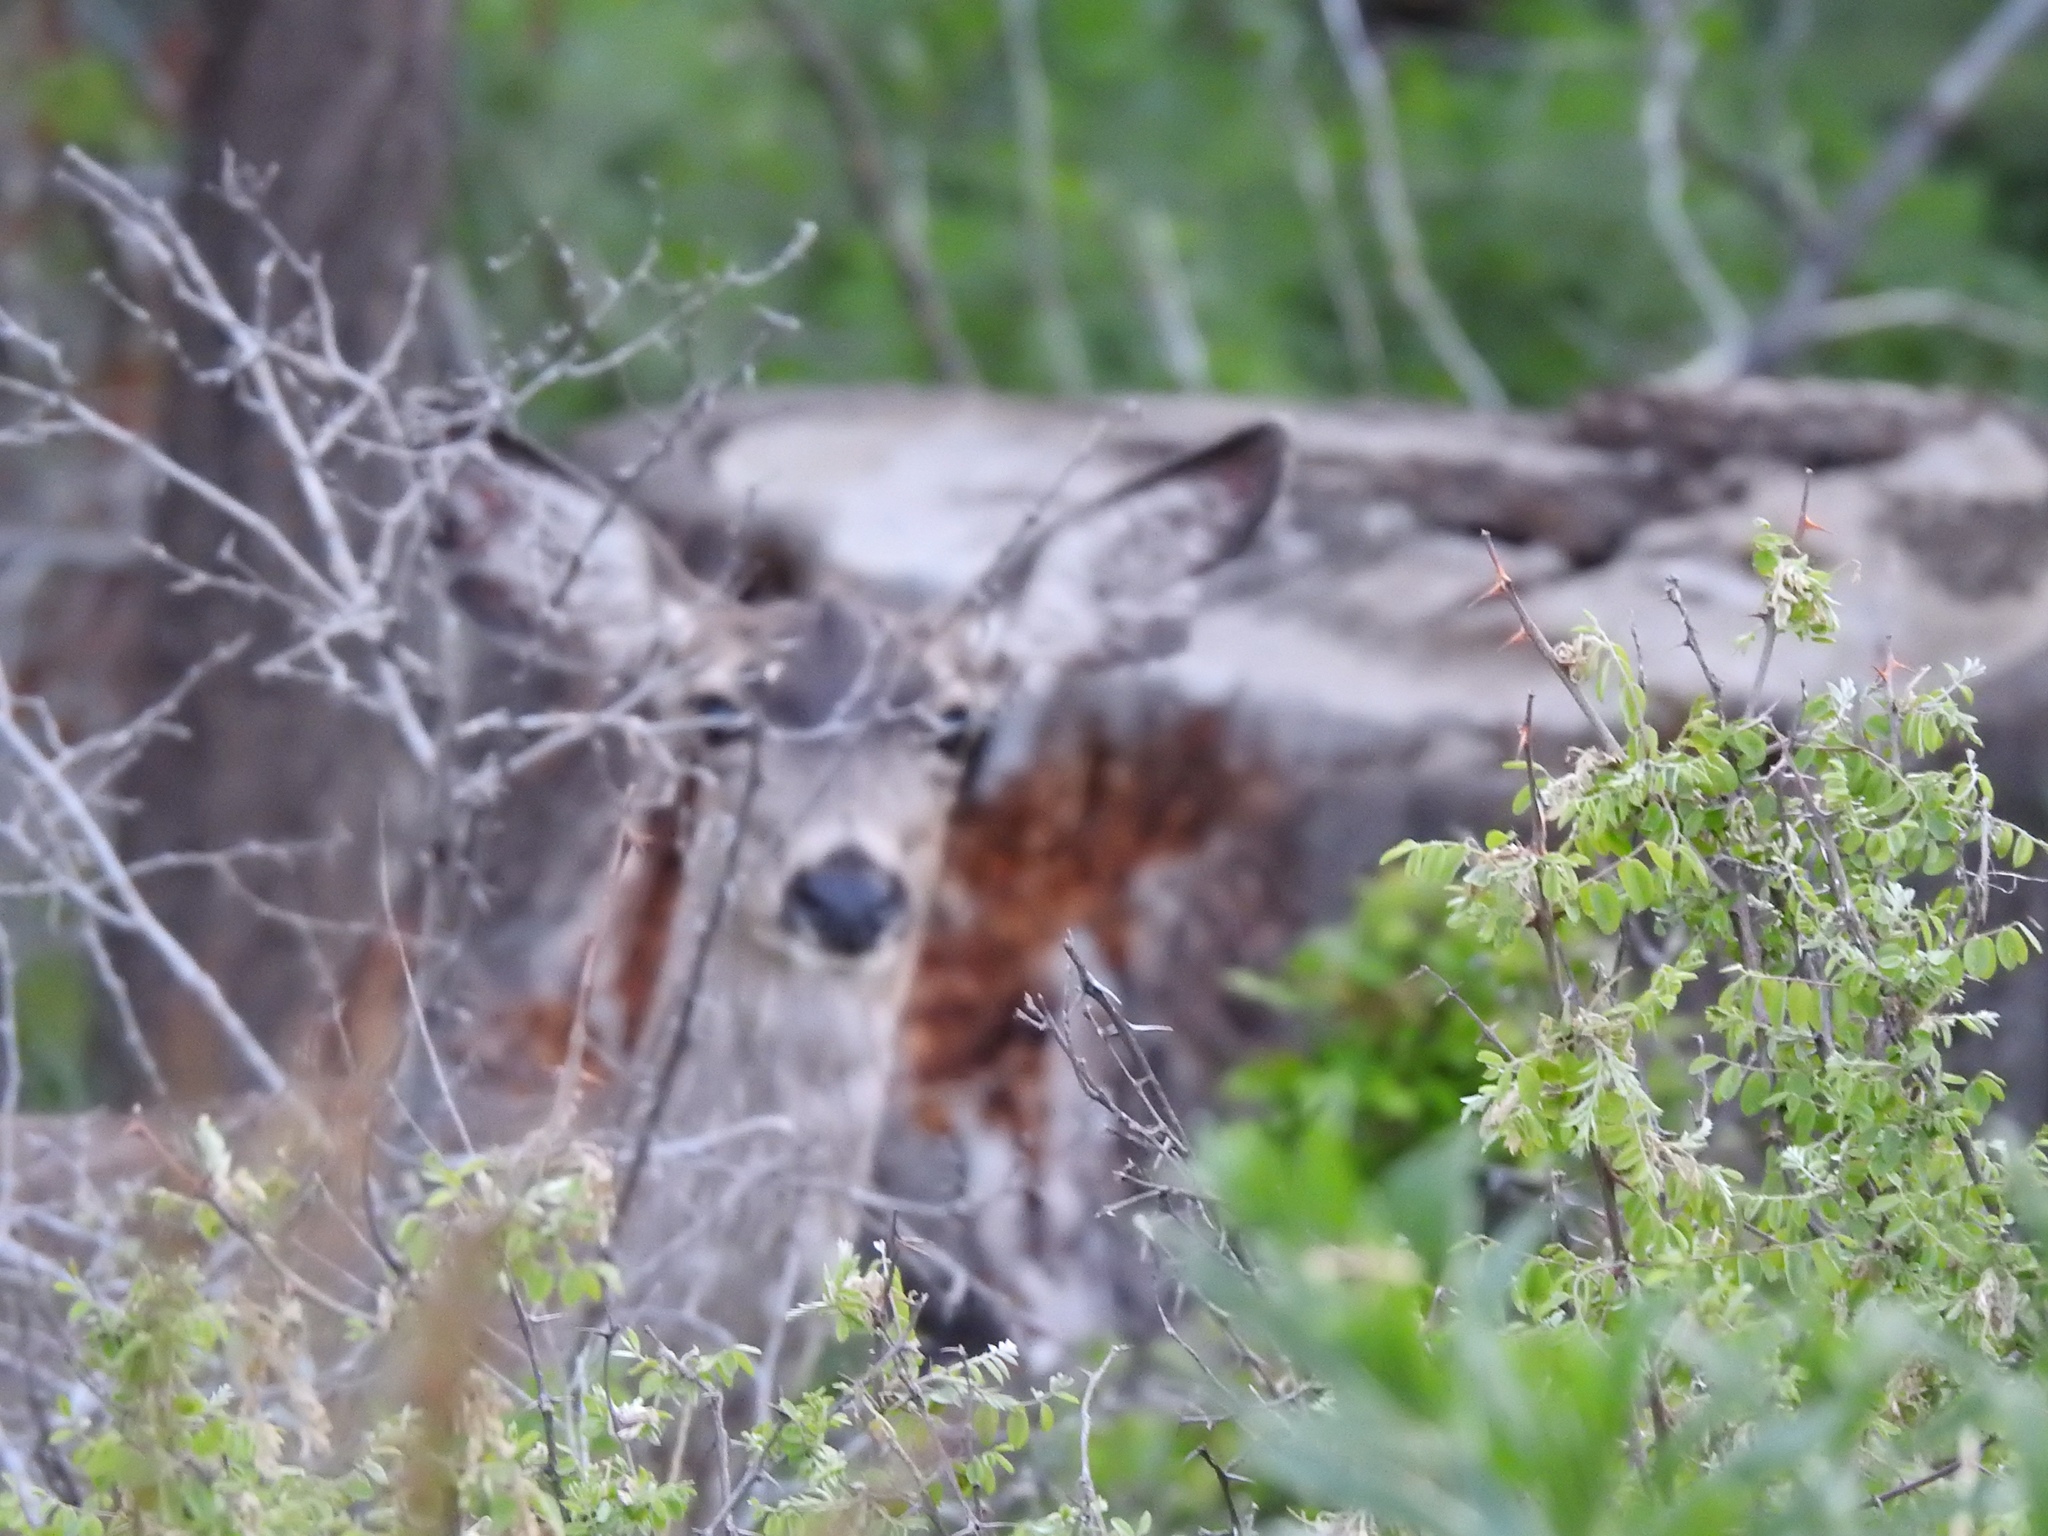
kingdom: Animalia
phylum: Chordata
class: Mammalia
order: Artiodactyla
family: Cervidae
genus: Odocoileus
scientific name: Odocoileus hemionus
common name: Mule deer
